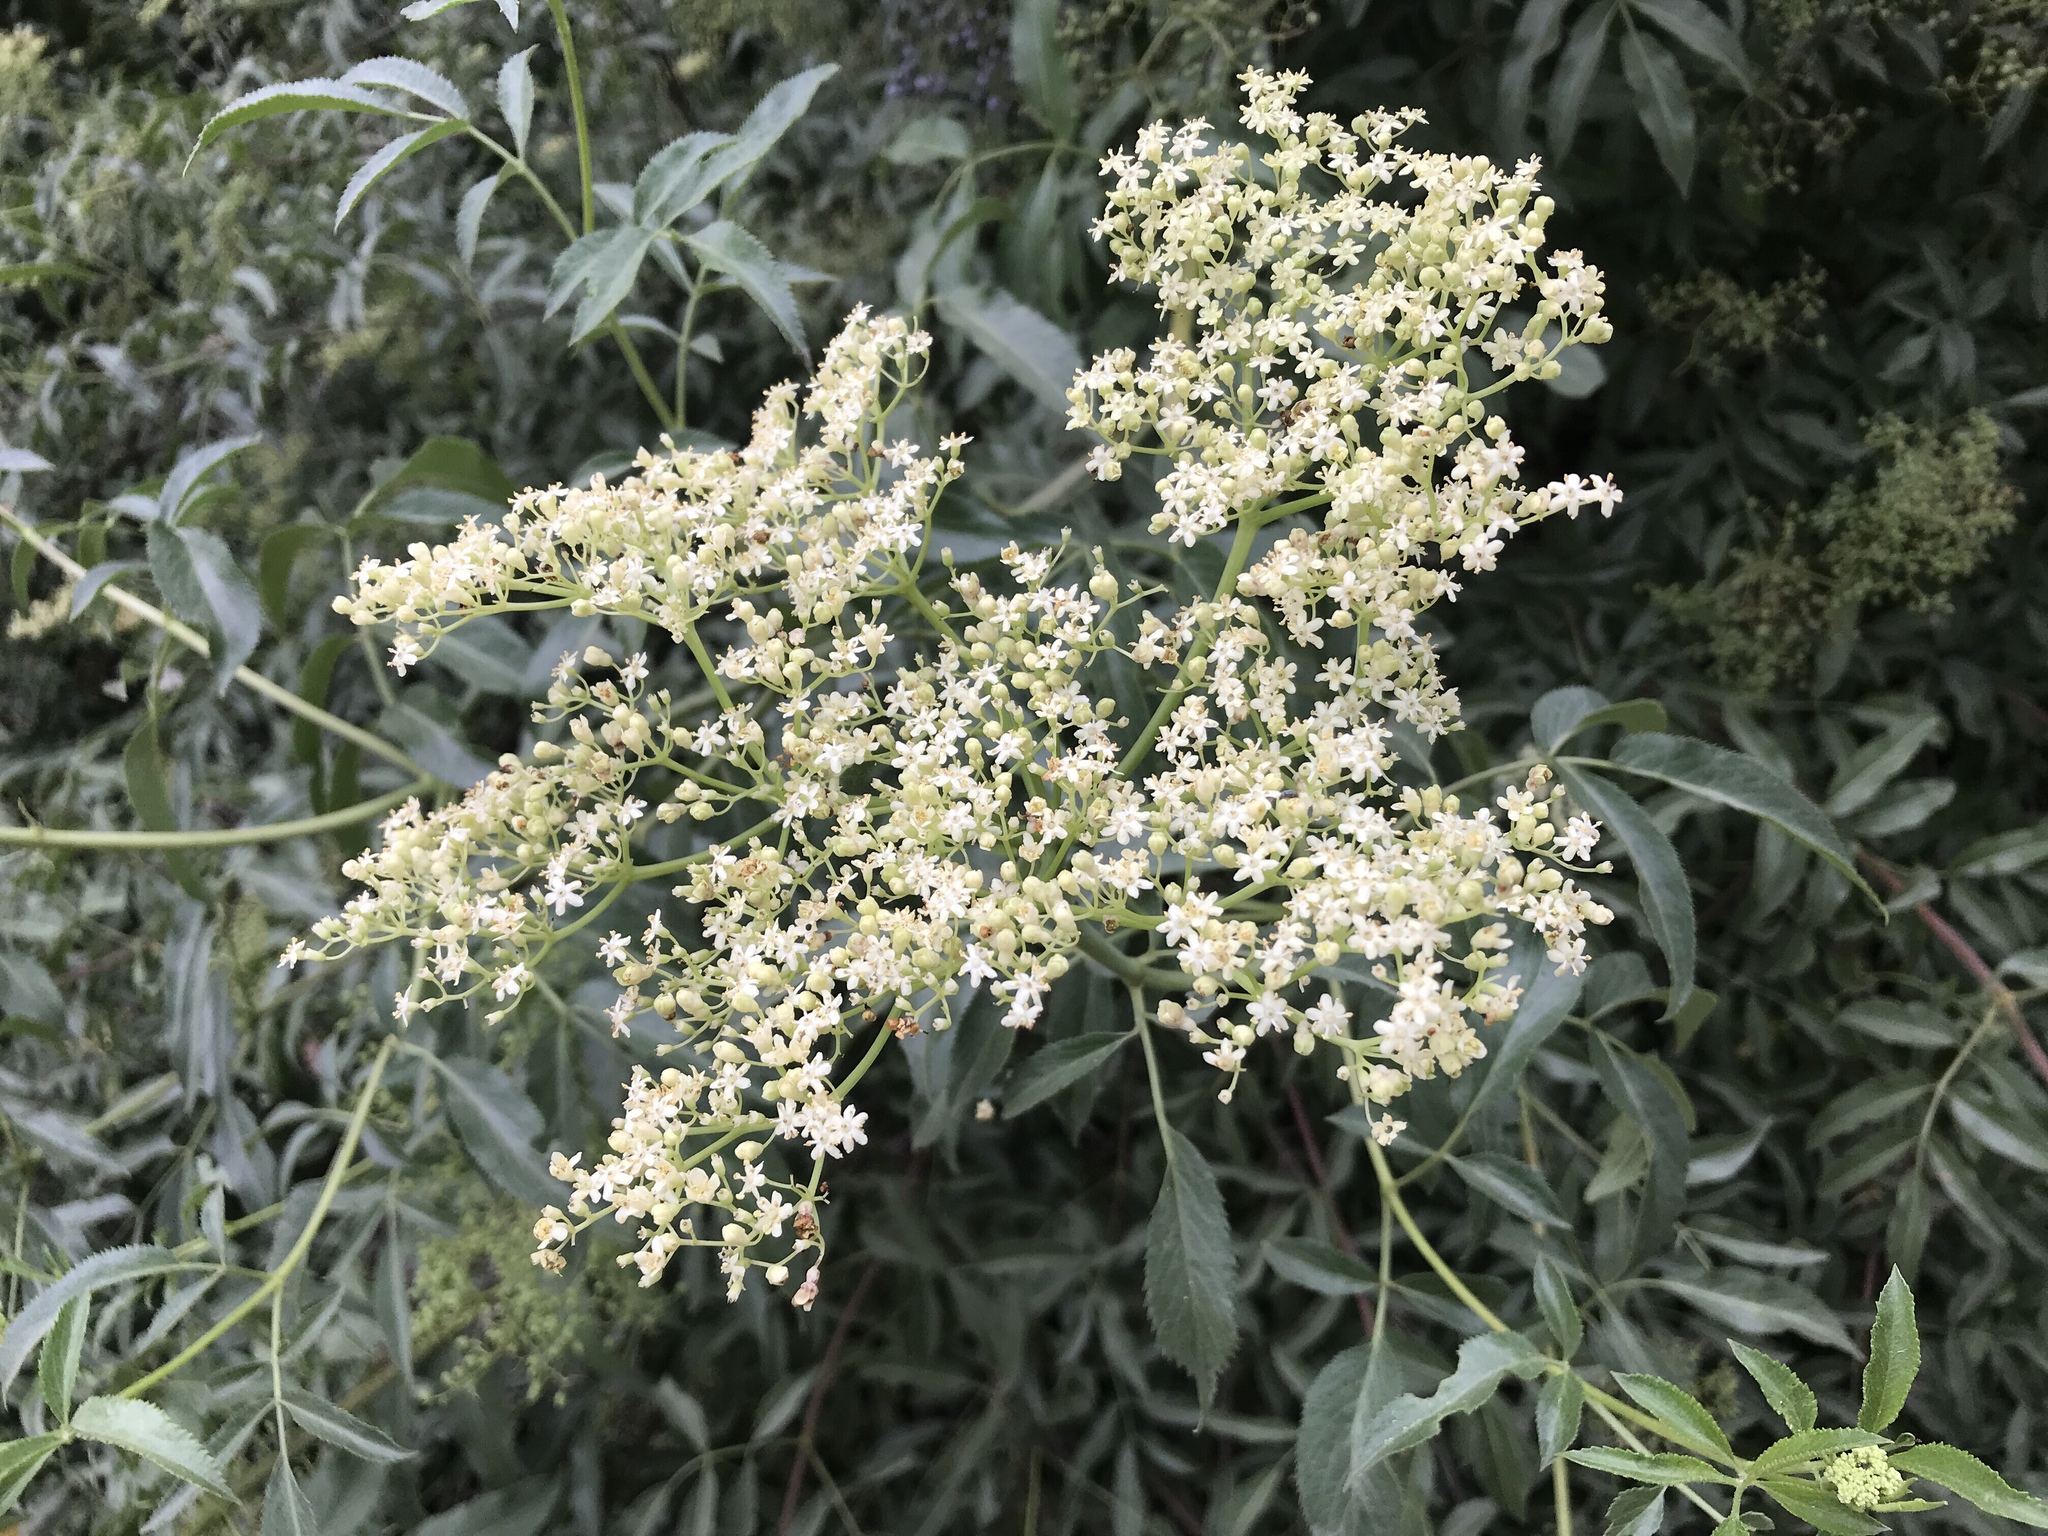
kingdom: Plantae
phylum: Tracheophyta
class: Magnoliopsida
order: Dipsacales
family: Viburnaceae
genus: Sambucus
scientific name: Sambucus cerulea
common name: Blue elder
